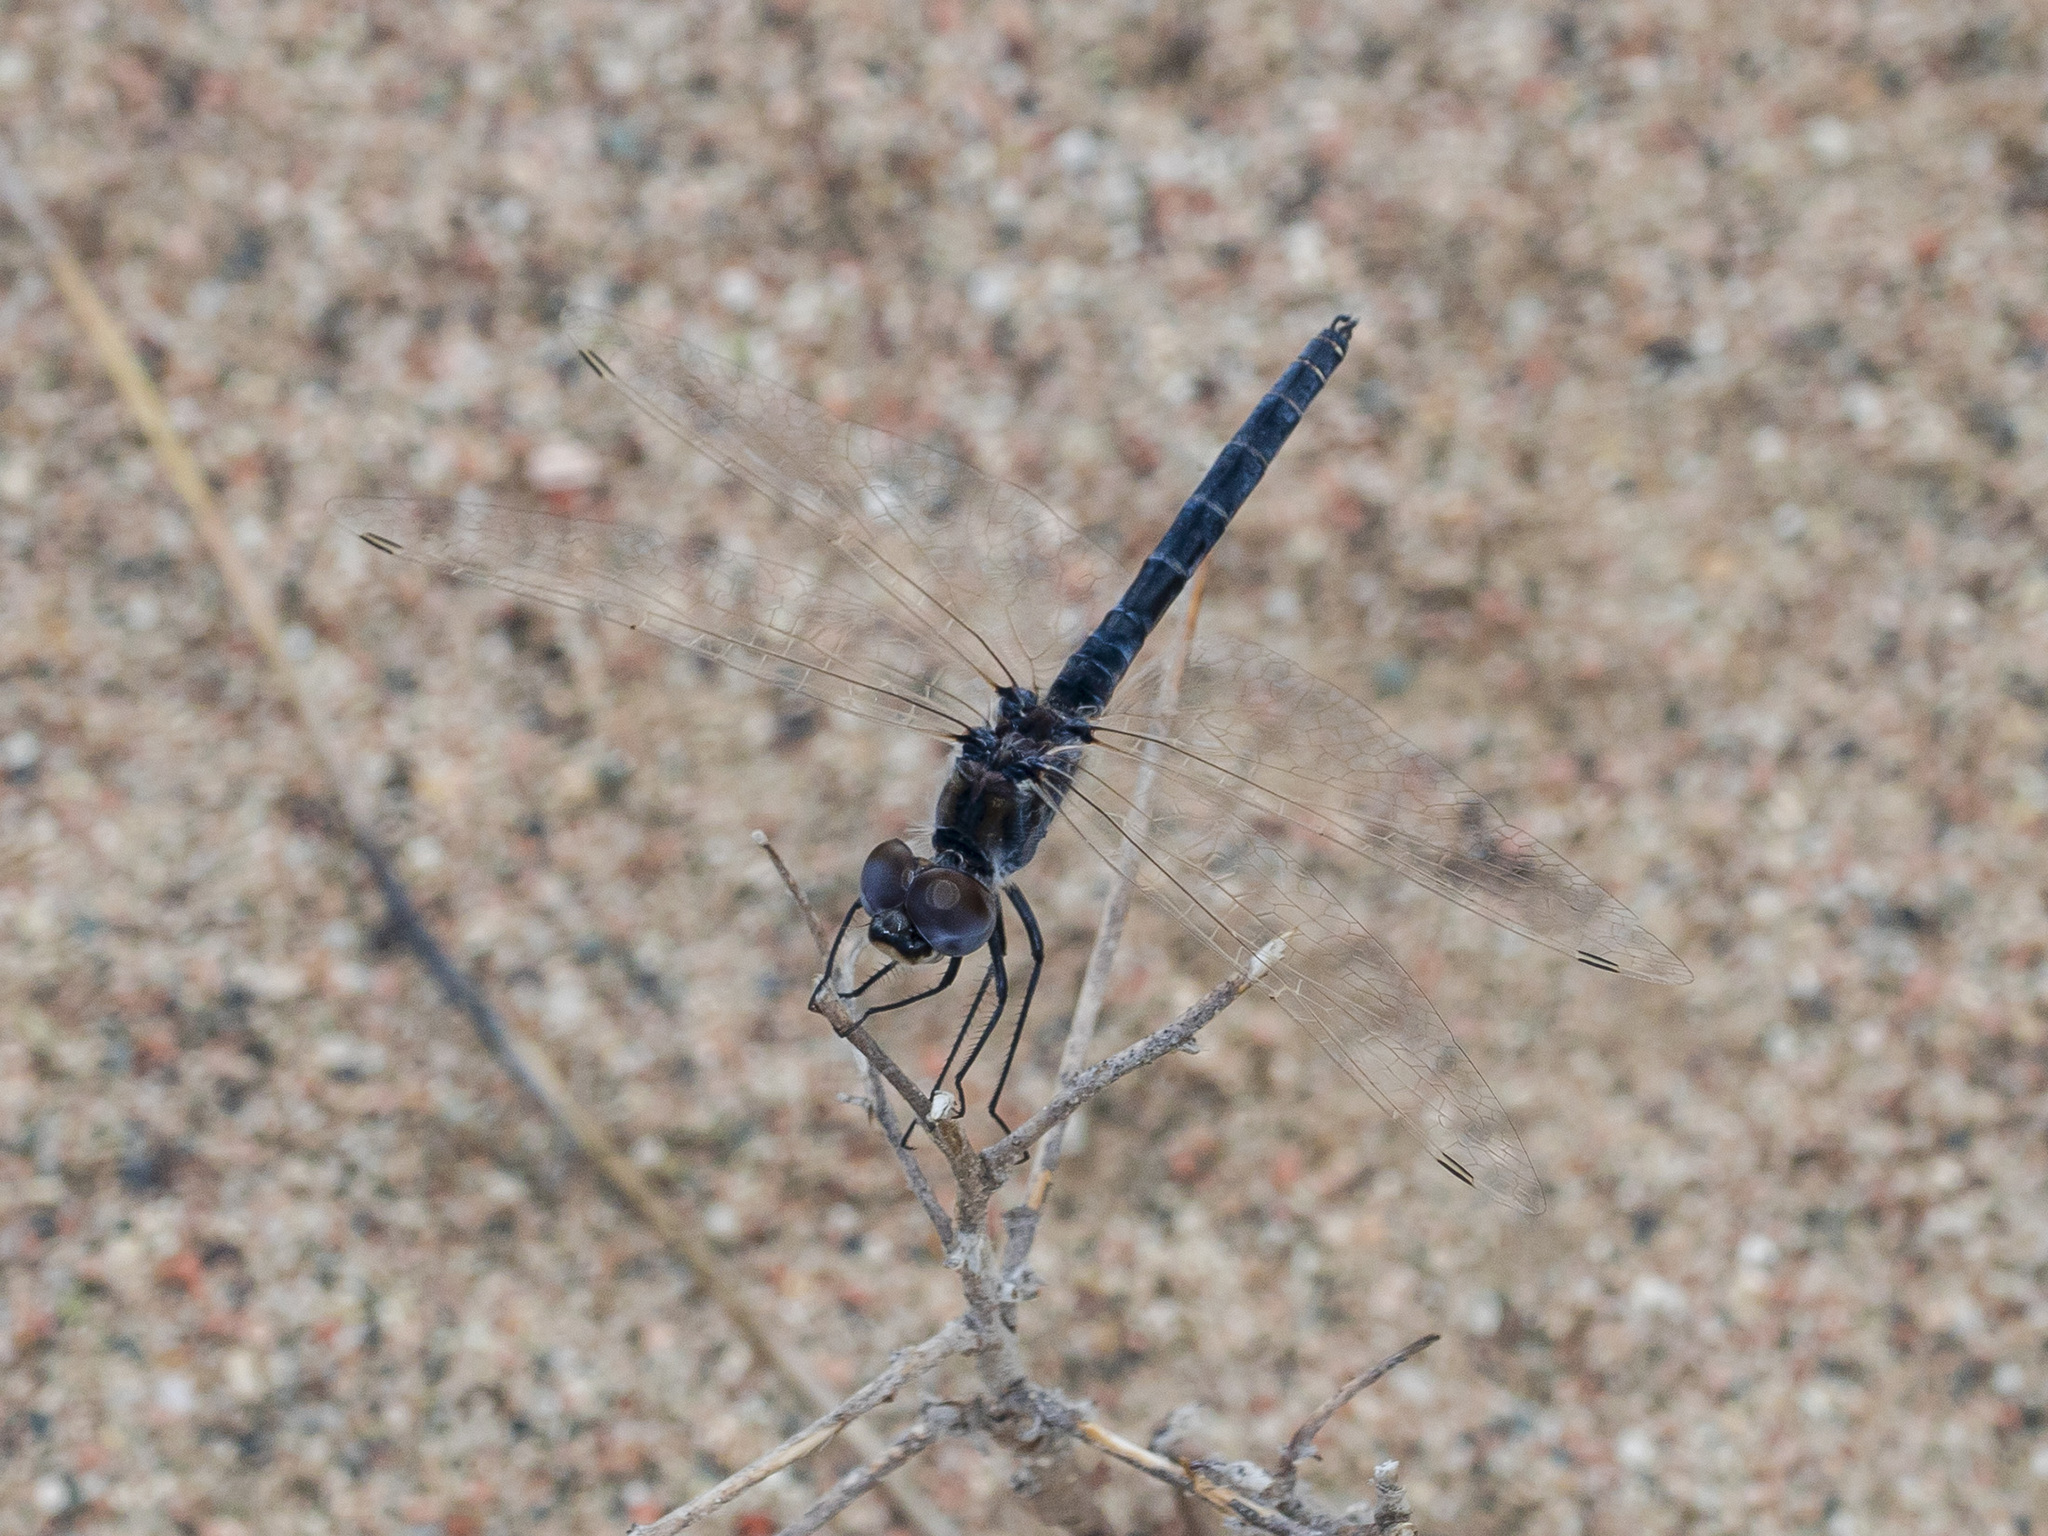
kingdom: Animalia
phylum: Arthropoda
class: Insecta
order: Odonata
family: Libellulidae
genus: Selysiothemis
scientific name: Selysiothemis nigra
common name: Black pennant
